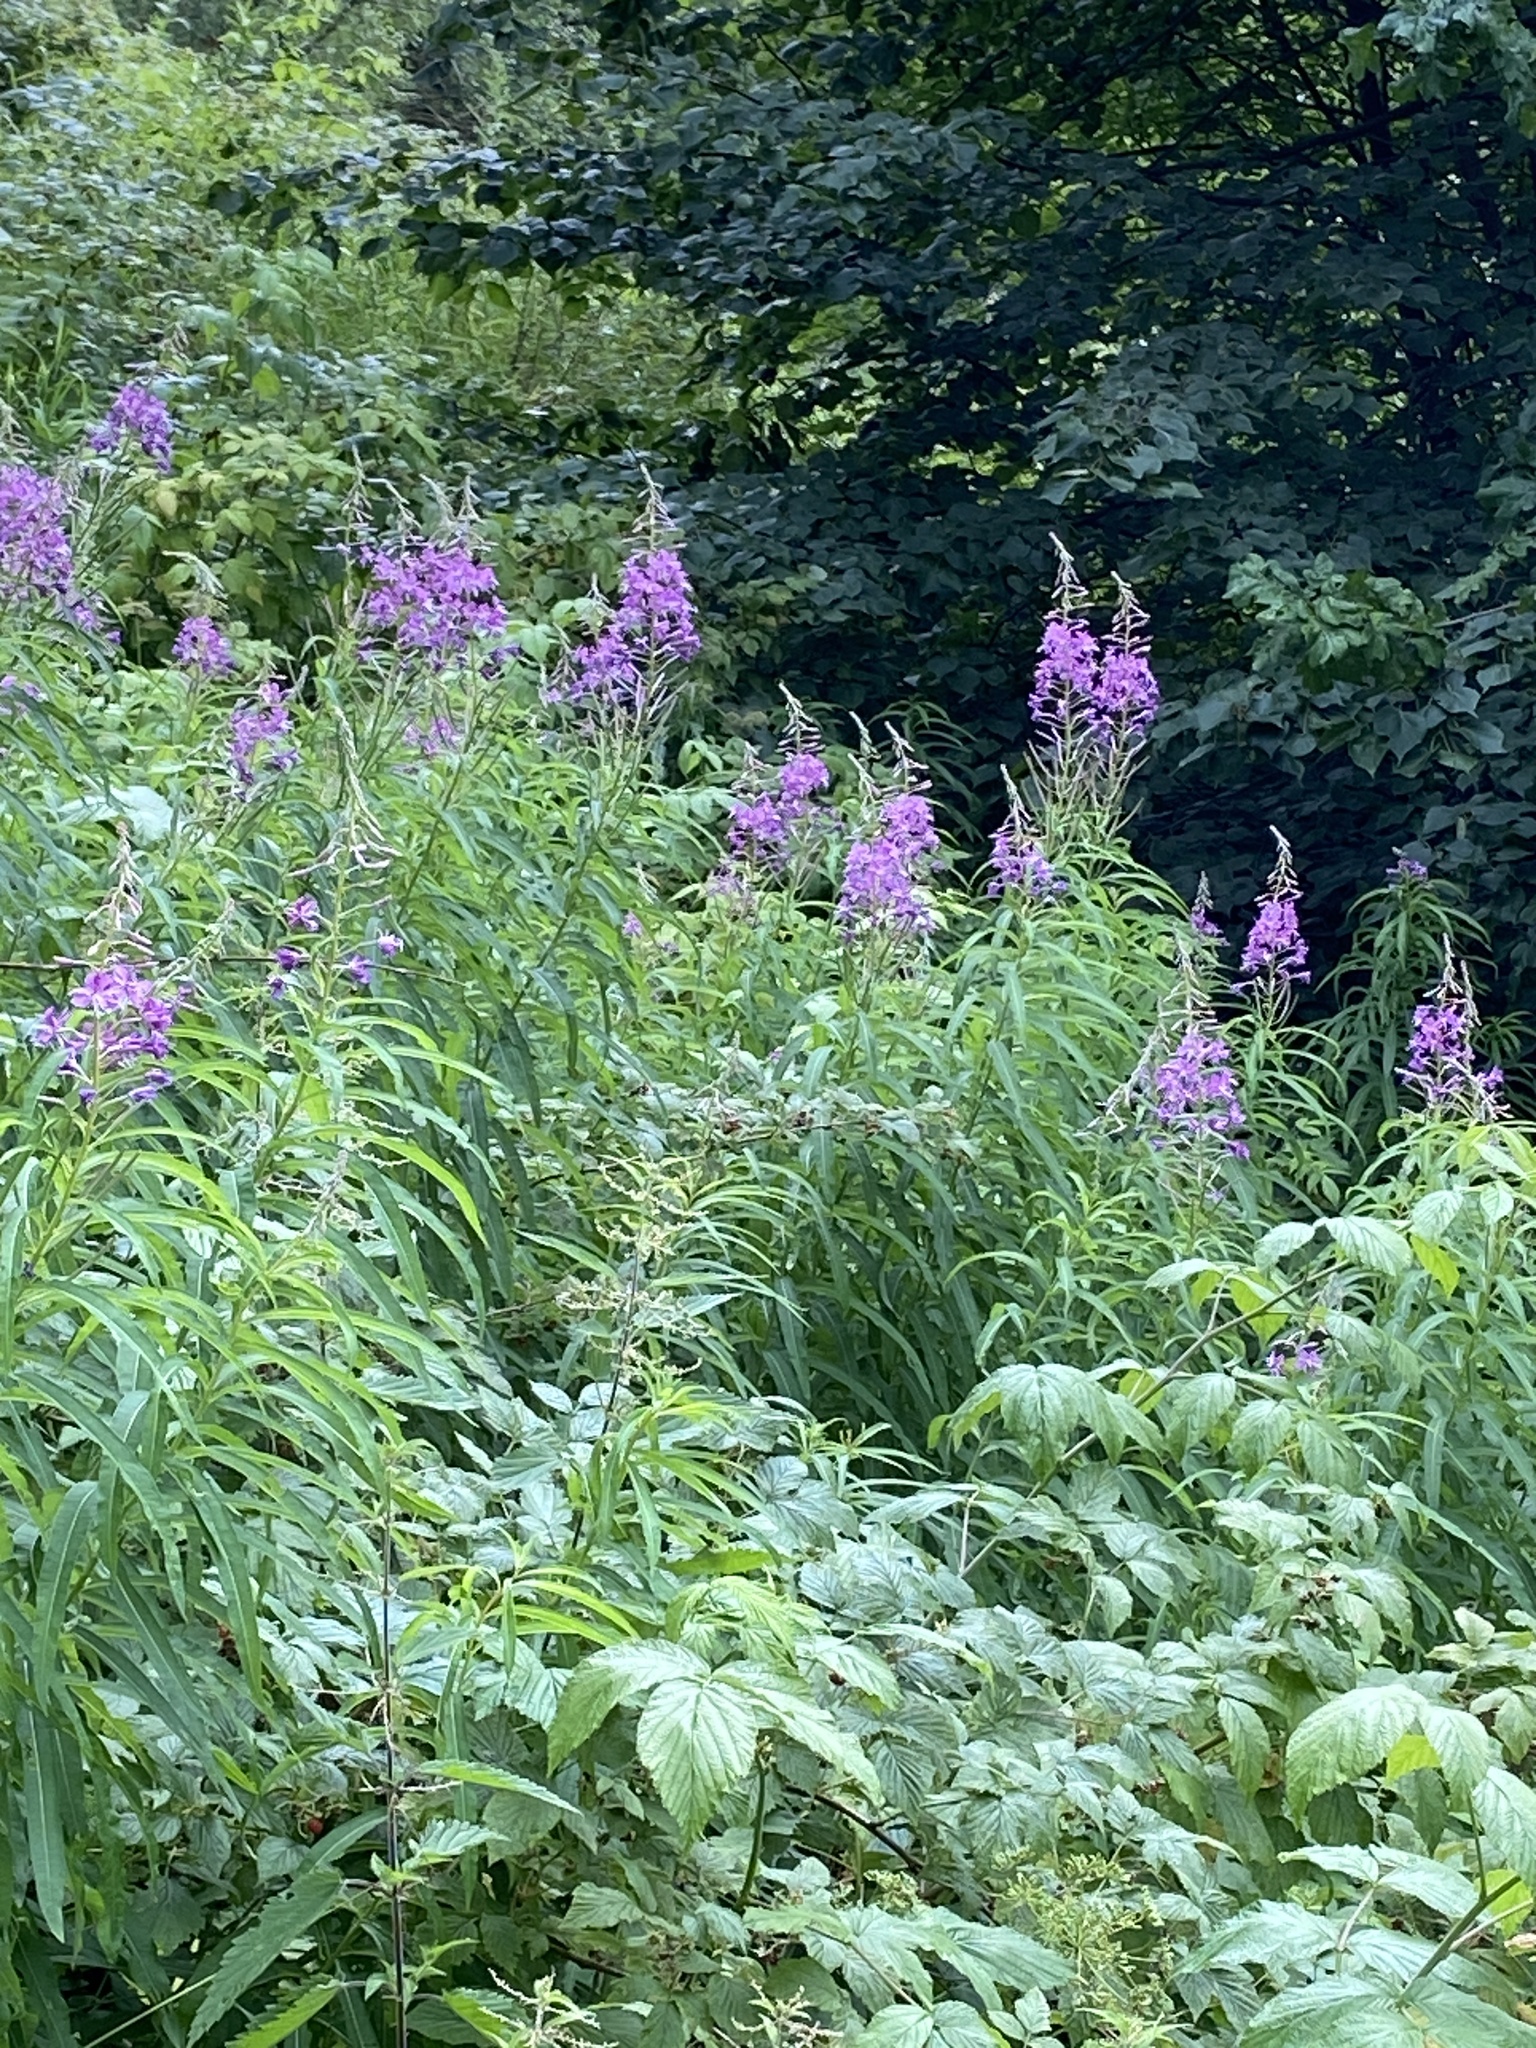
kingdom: Plantae
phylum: Tracheophyta
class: Magnoliopsida
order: Myrtales
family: Onagraceae
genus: Chamaenerion
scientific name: Chamaenerion angustifolium
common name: Fireweed
